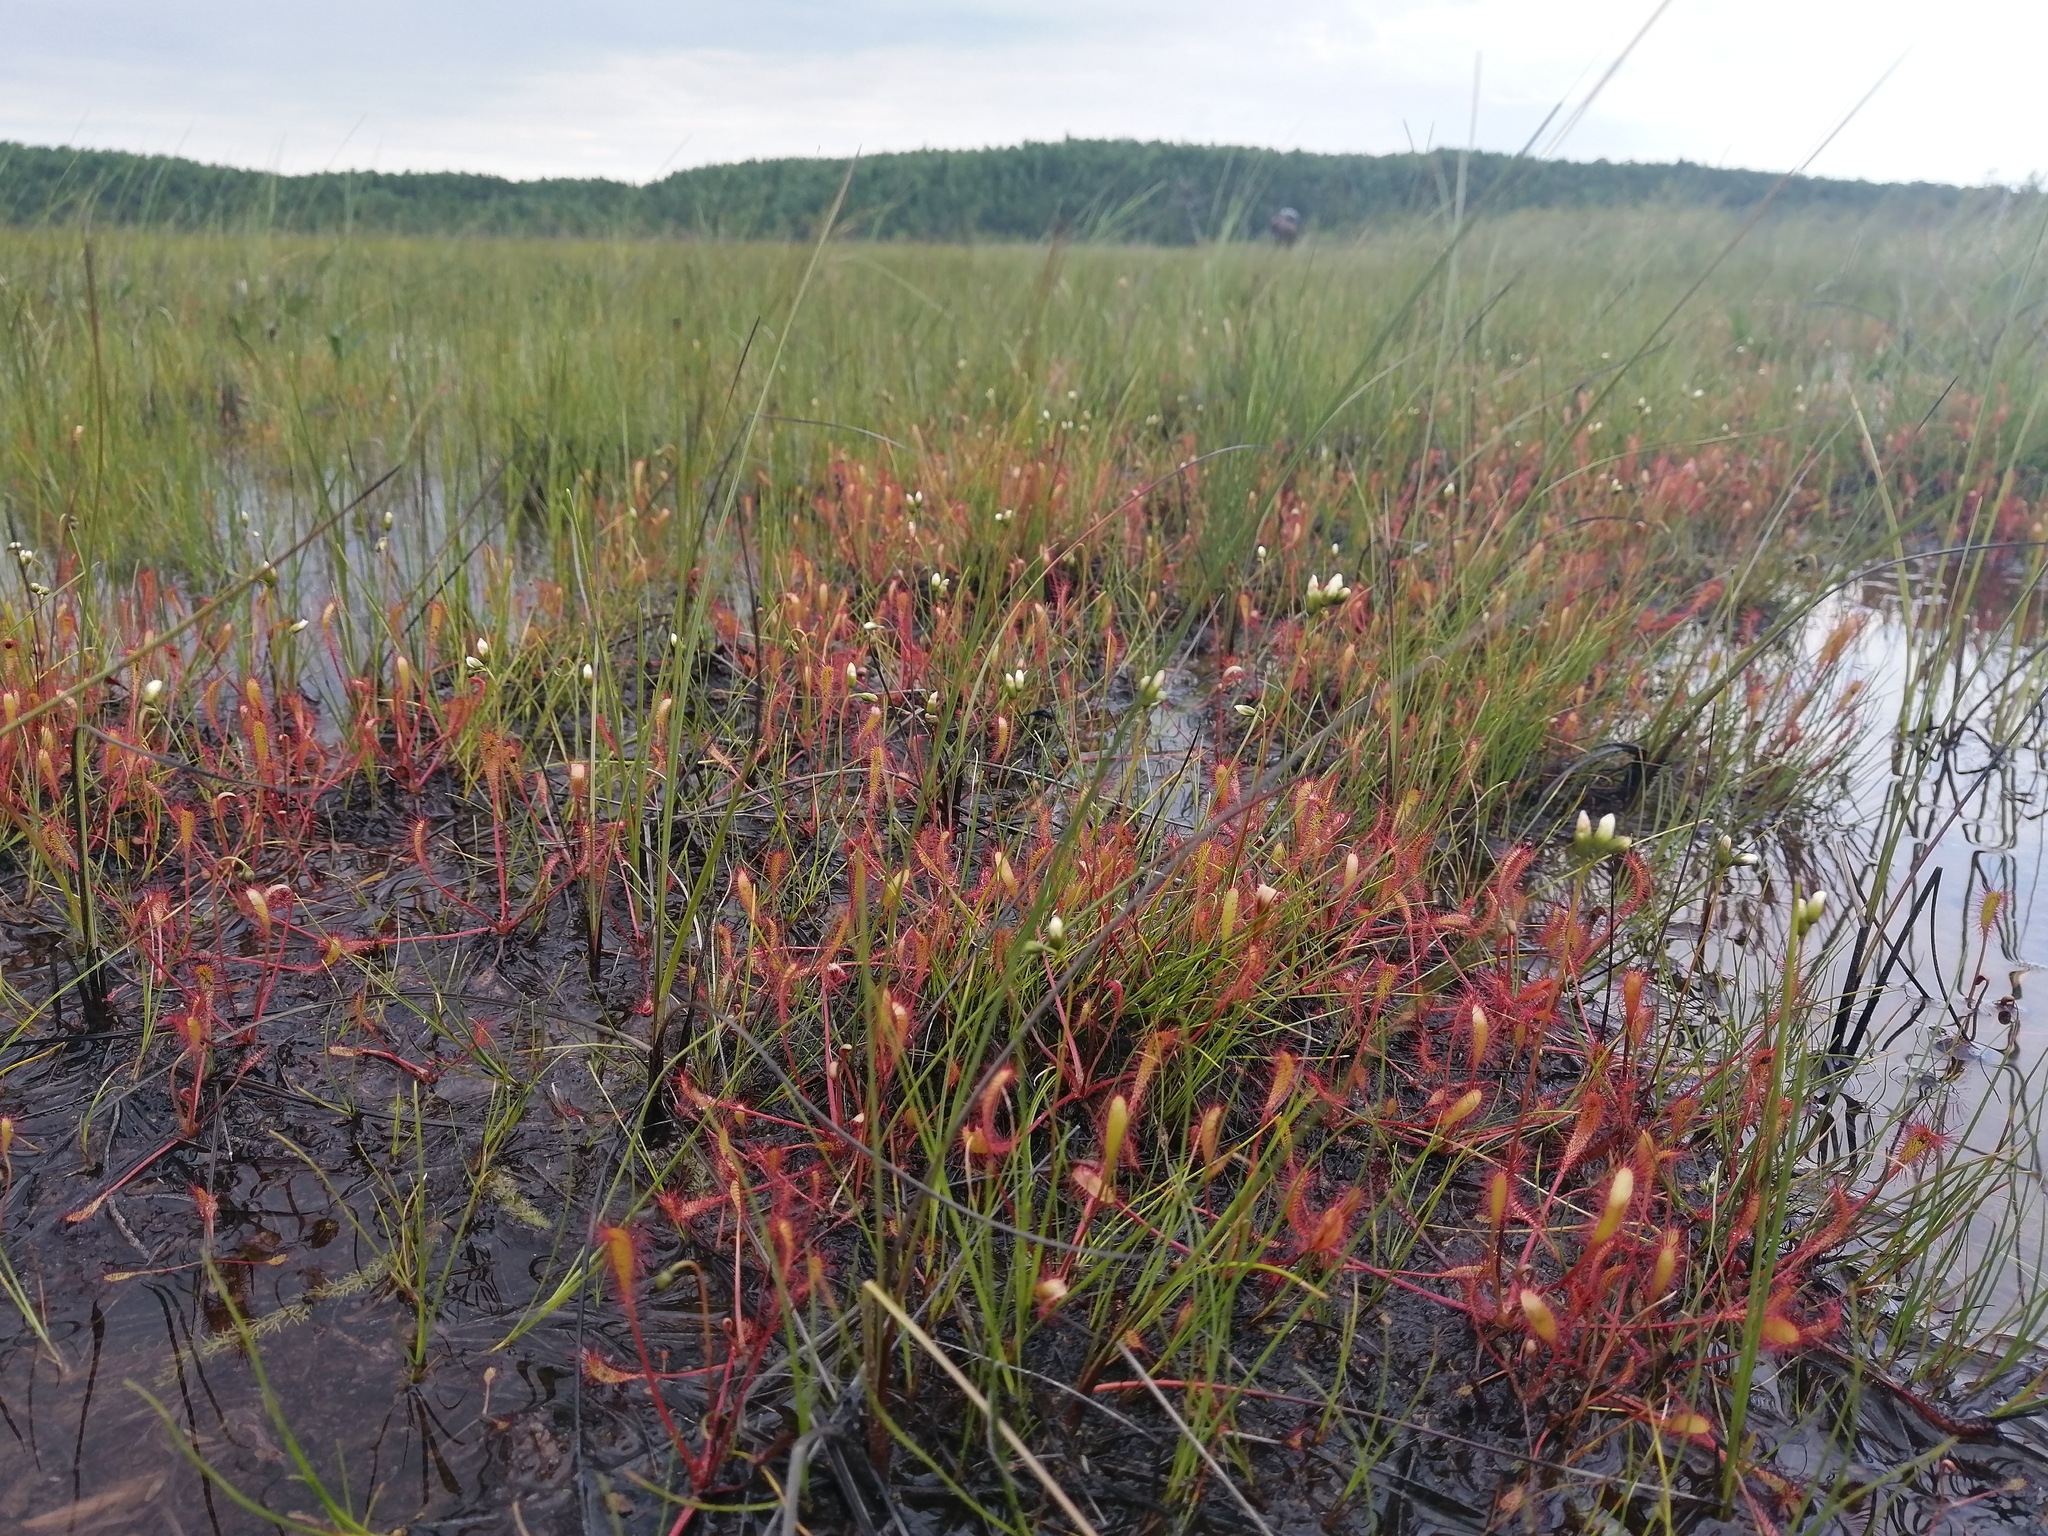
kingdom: Plantae
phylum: Tracheophyta
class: Magnoliopsida
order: Caryophyllales
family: Droseraceae
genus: Drosera
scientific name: Drosera anglica
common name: Great sundew
